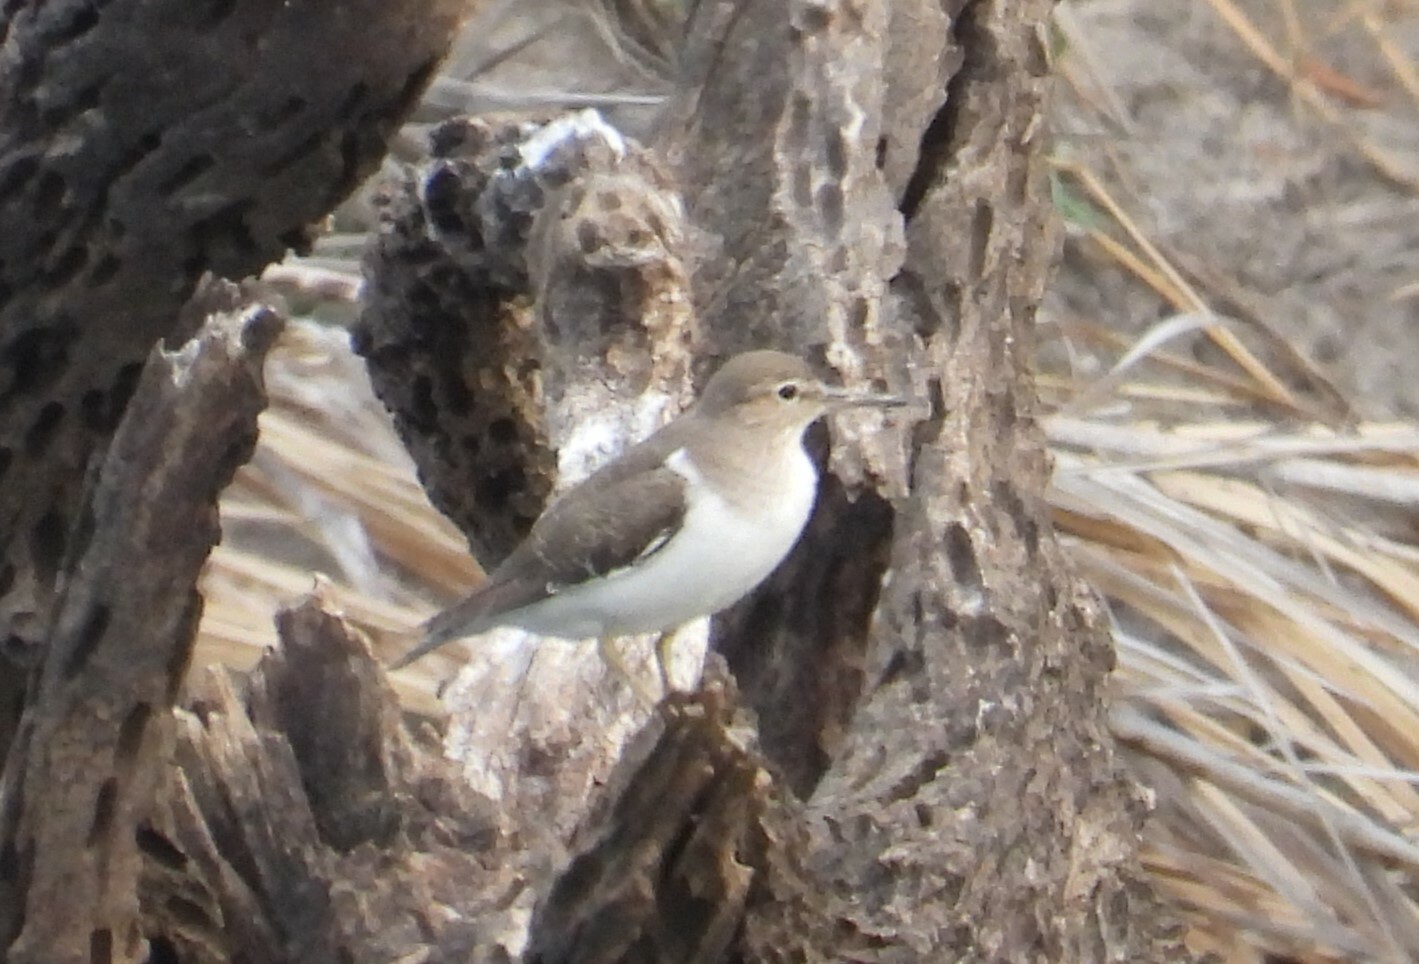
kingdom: Animalia
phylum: Chordata
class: Aves
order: Charadriiformes
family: Scolopacidae
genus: Actitis
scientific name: Actitis hypoleucos
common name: Common sandpiper
